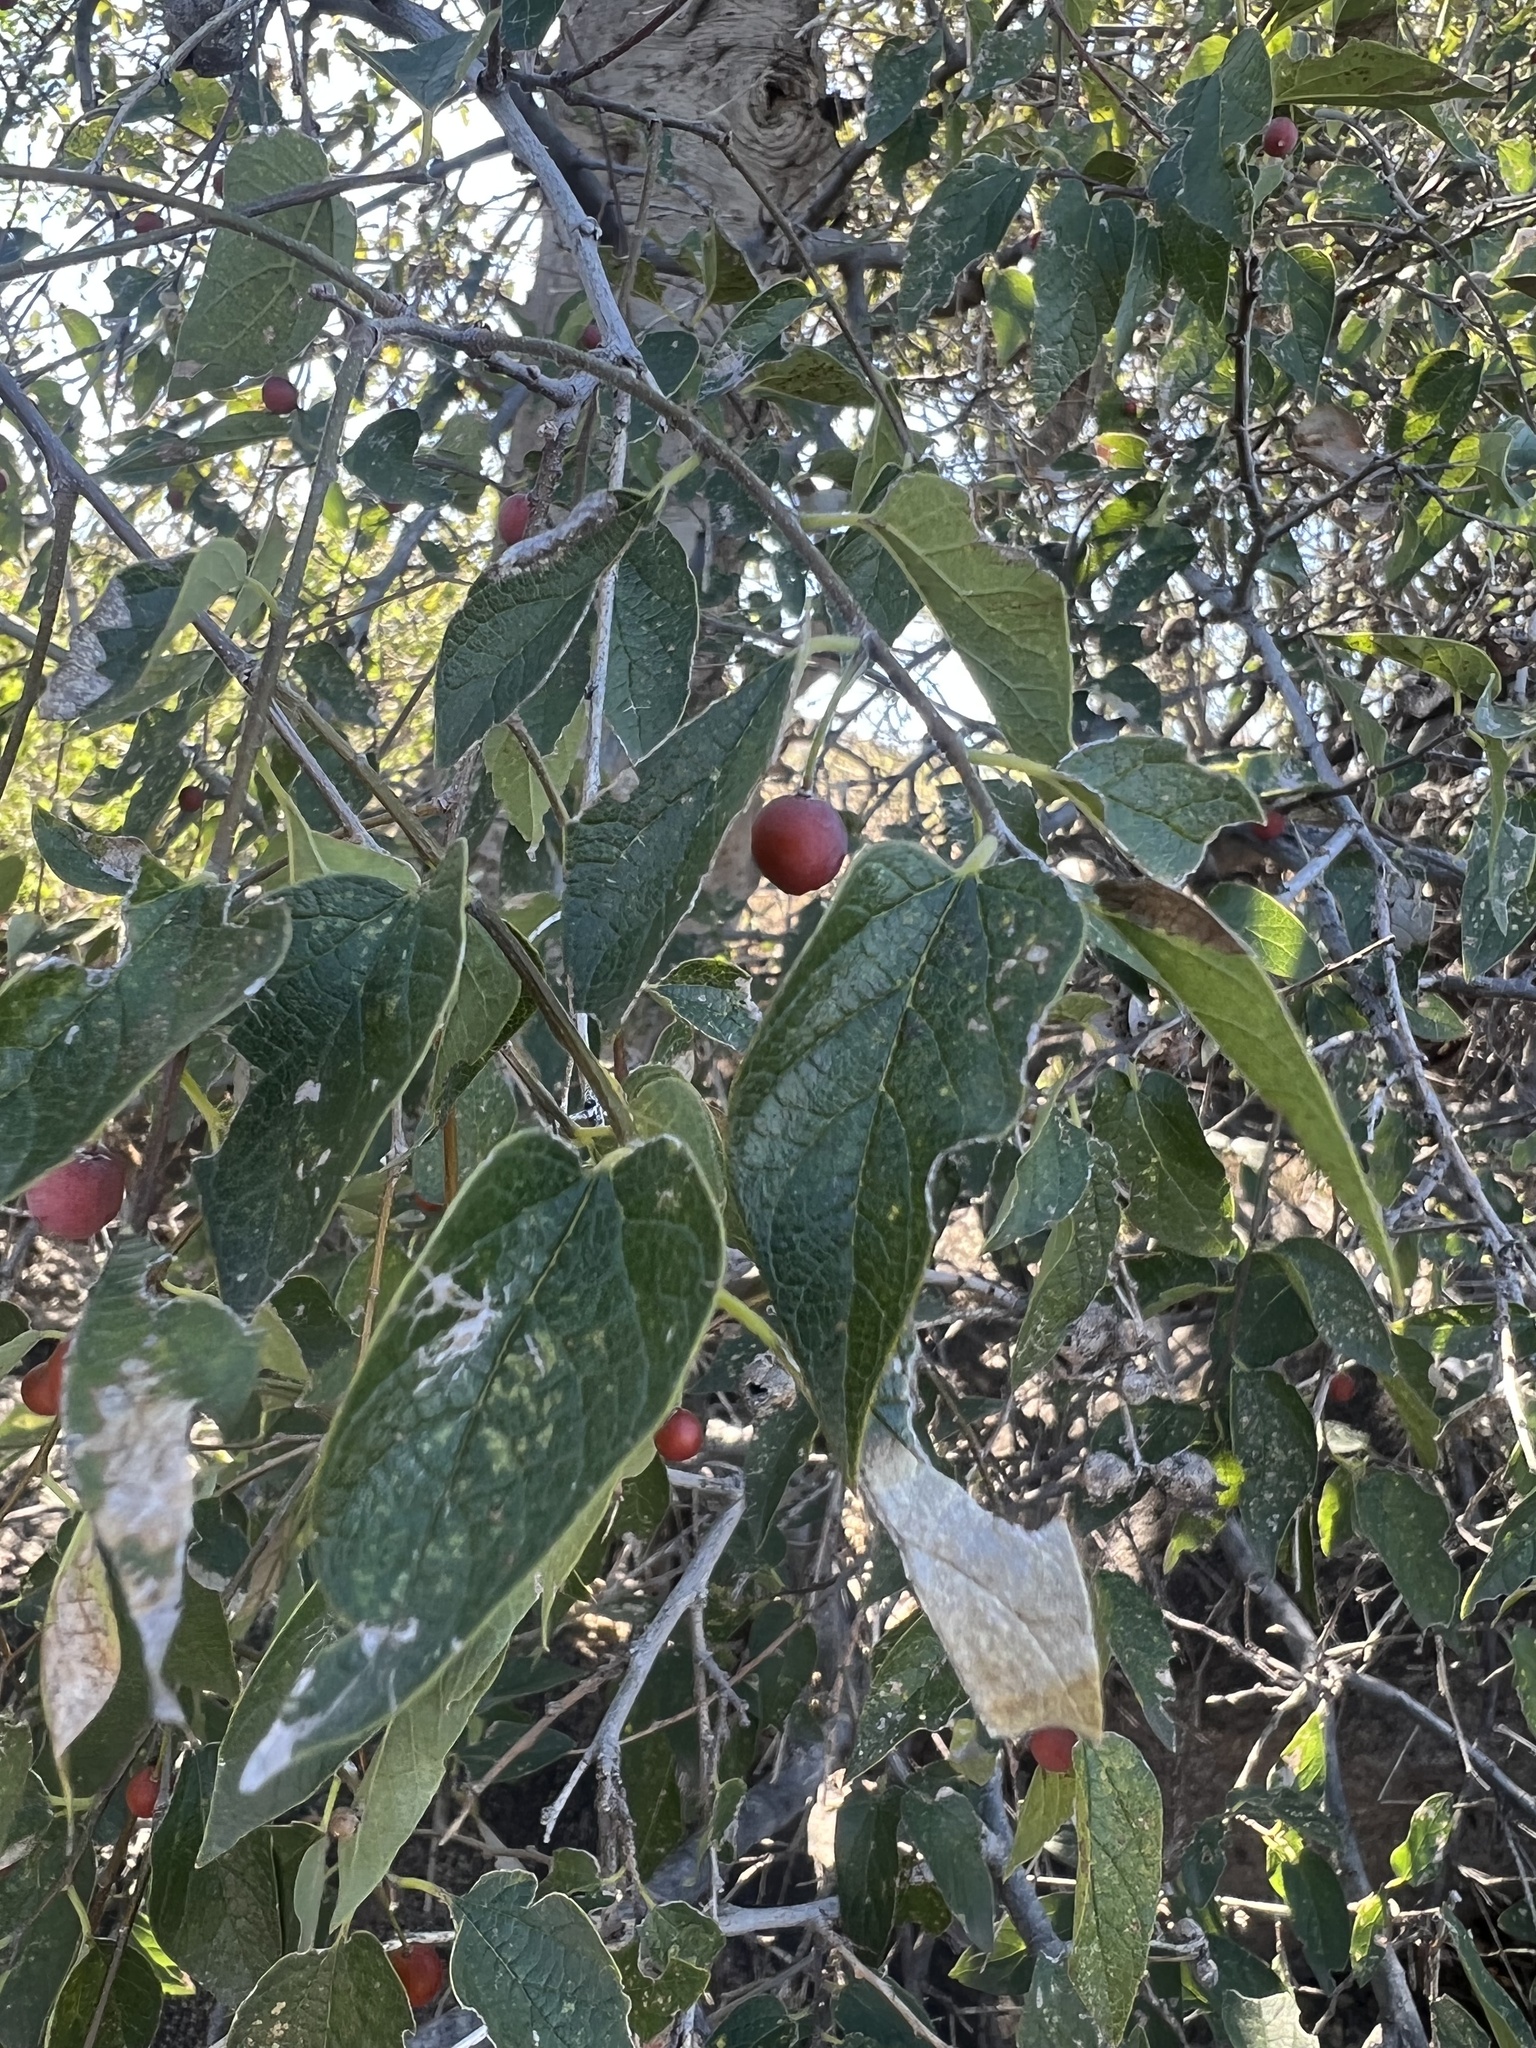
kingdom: Plantae
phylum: Tracheophyta
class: Magnoliopsida
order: Rosales
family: Cannabaceae
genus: Celtis
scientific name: Celtis reticulata
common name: Netleaf hackberry
